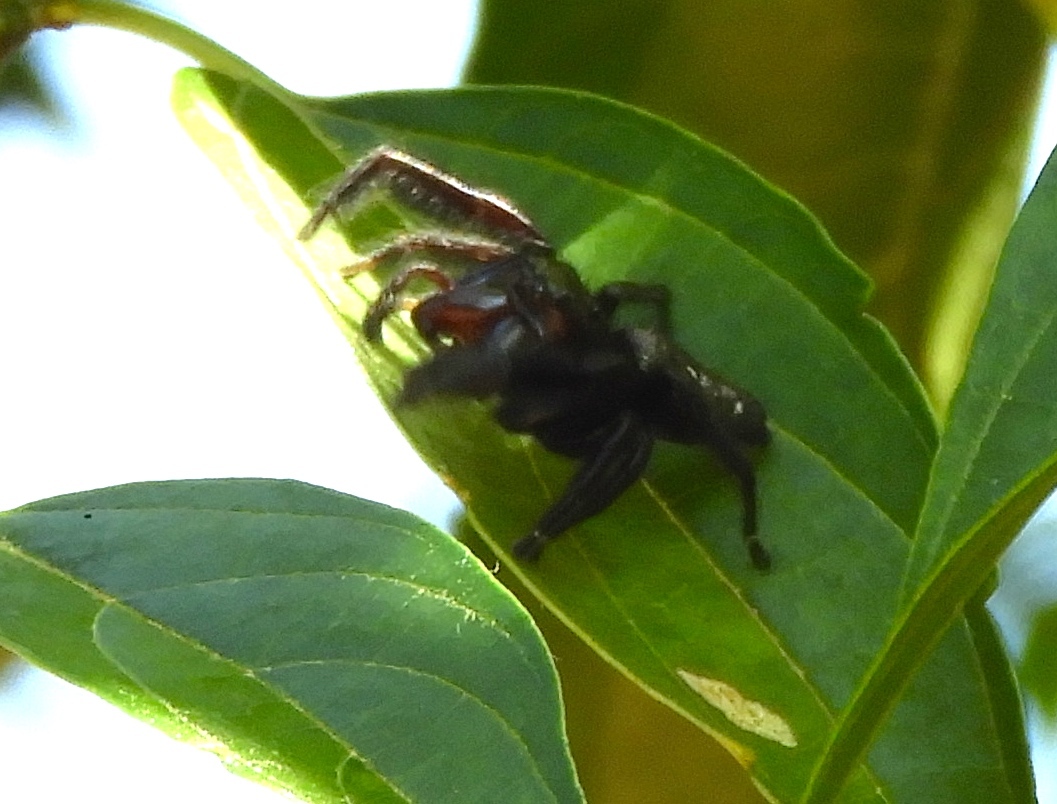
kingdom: Animalia
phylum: Arthropoda
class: Arachnida
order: Araneae
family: Salticidae
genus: Paraphidippus
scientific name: Paraphidippus fartilis
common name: Jumping spiders
